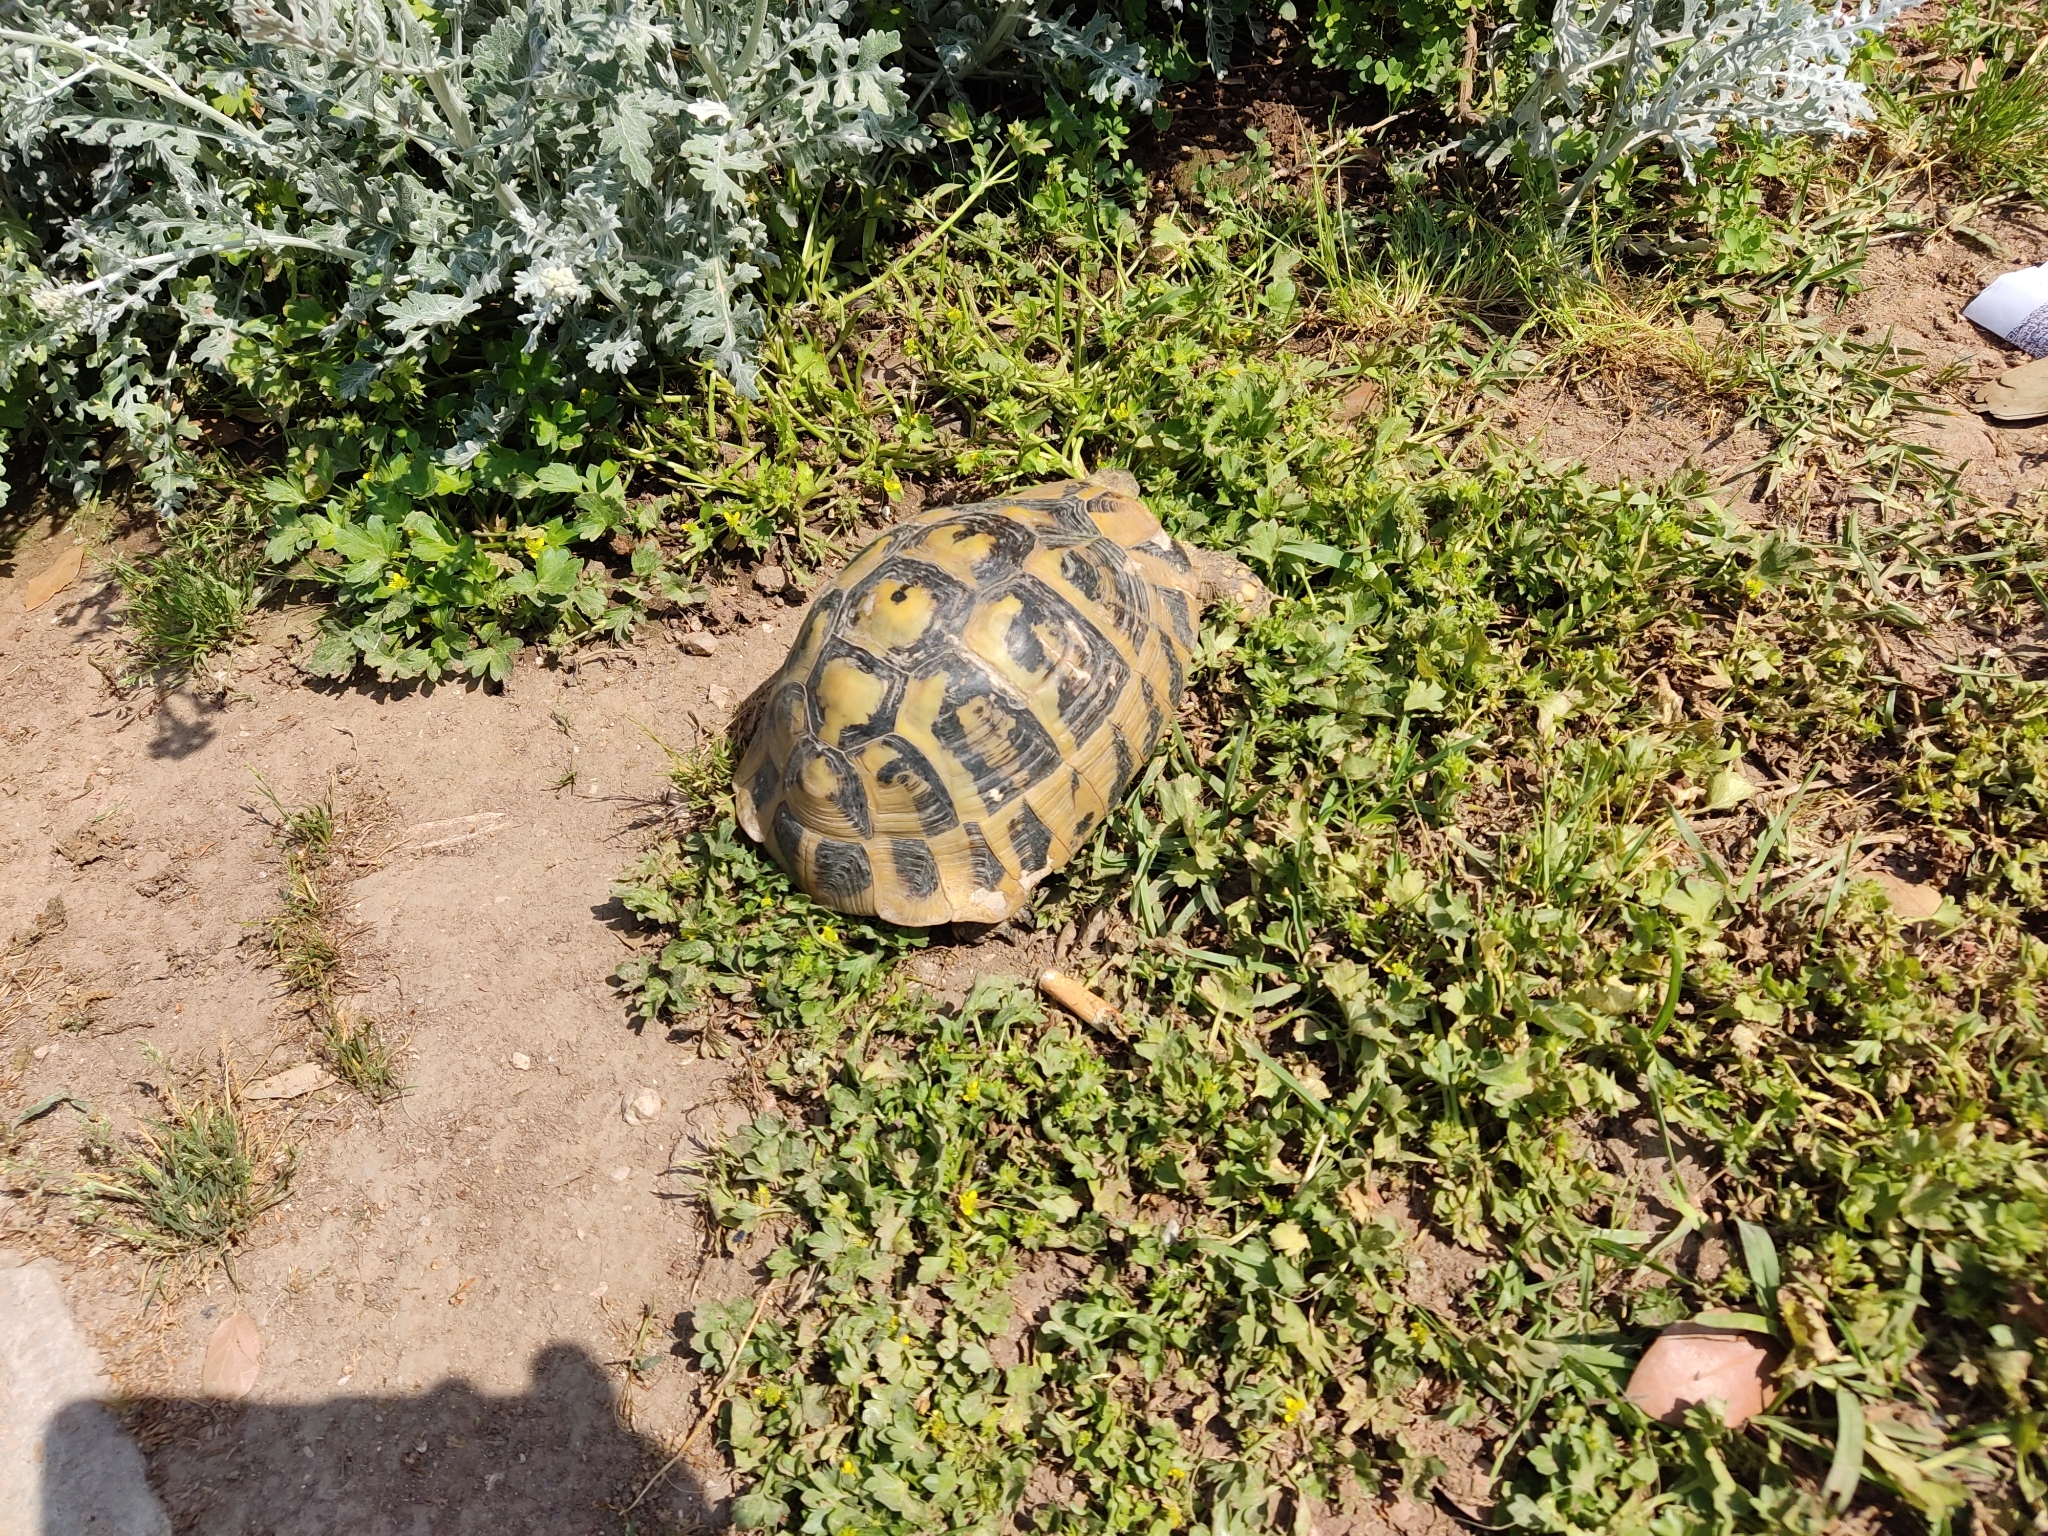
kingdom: Animalia
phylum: Chordata
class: Testudines
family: Testudinidae
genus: Testudo
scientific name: Testudo hermanni
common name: Hermann's tortoise
